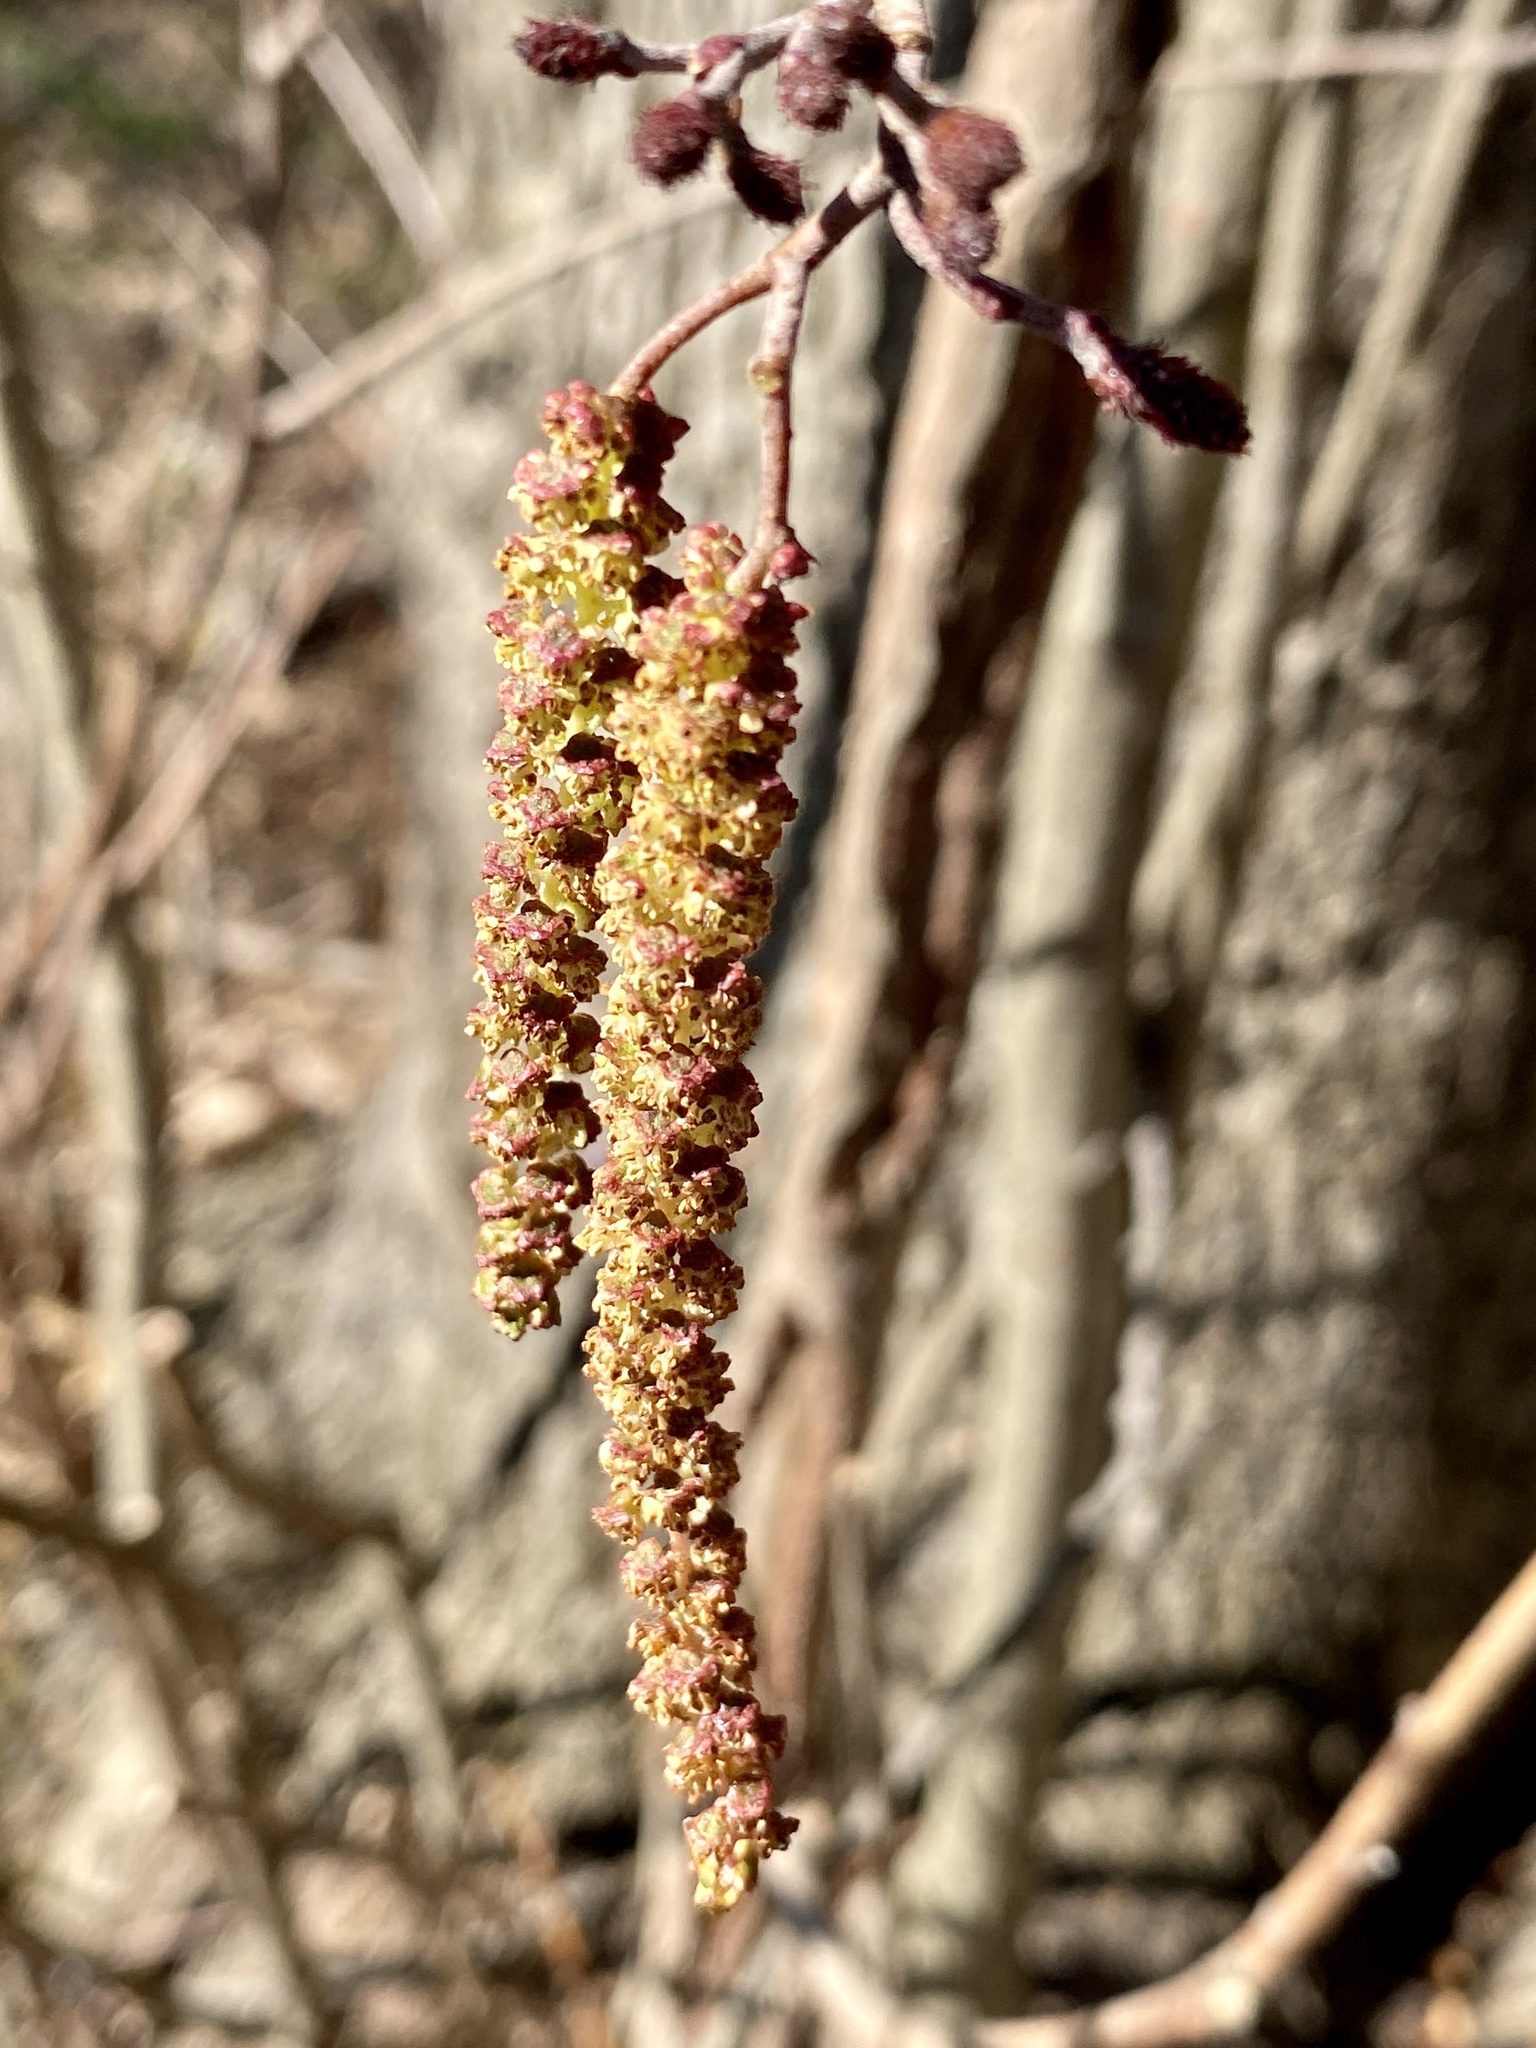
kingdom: Plantae
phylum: Tracheophyta
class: Magnoliopsida
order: Fagales
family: Betulaceae
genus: Betula
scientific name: Betula lenta
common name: Black birch
